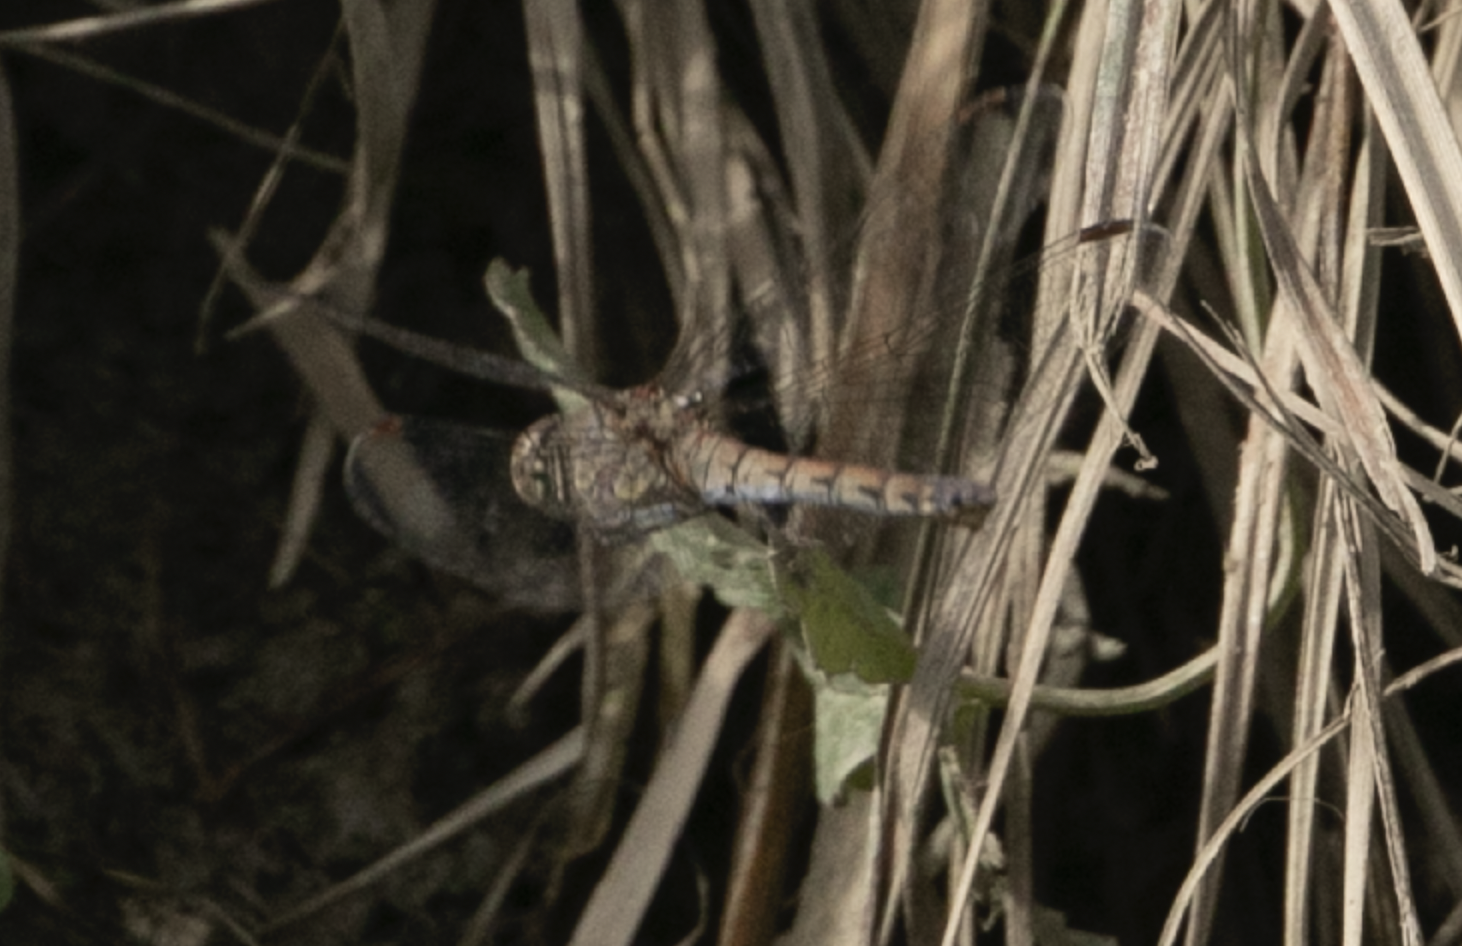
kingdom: Animalia
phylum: Arthropoda
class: Insecta
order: Odonata
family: Libellulidae
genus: Sympetrum
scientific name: Sympetrum striolatum
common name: Common darter
